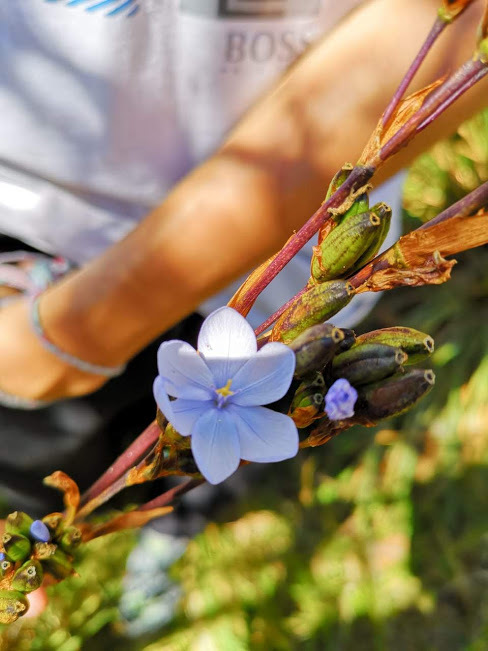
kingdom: Plantae
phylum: Tracheophyta
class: Liliopsida
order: Asparagales
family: Iridaceae
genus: Orthrosanthus
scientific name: Orthrosanthus chimboracensis
